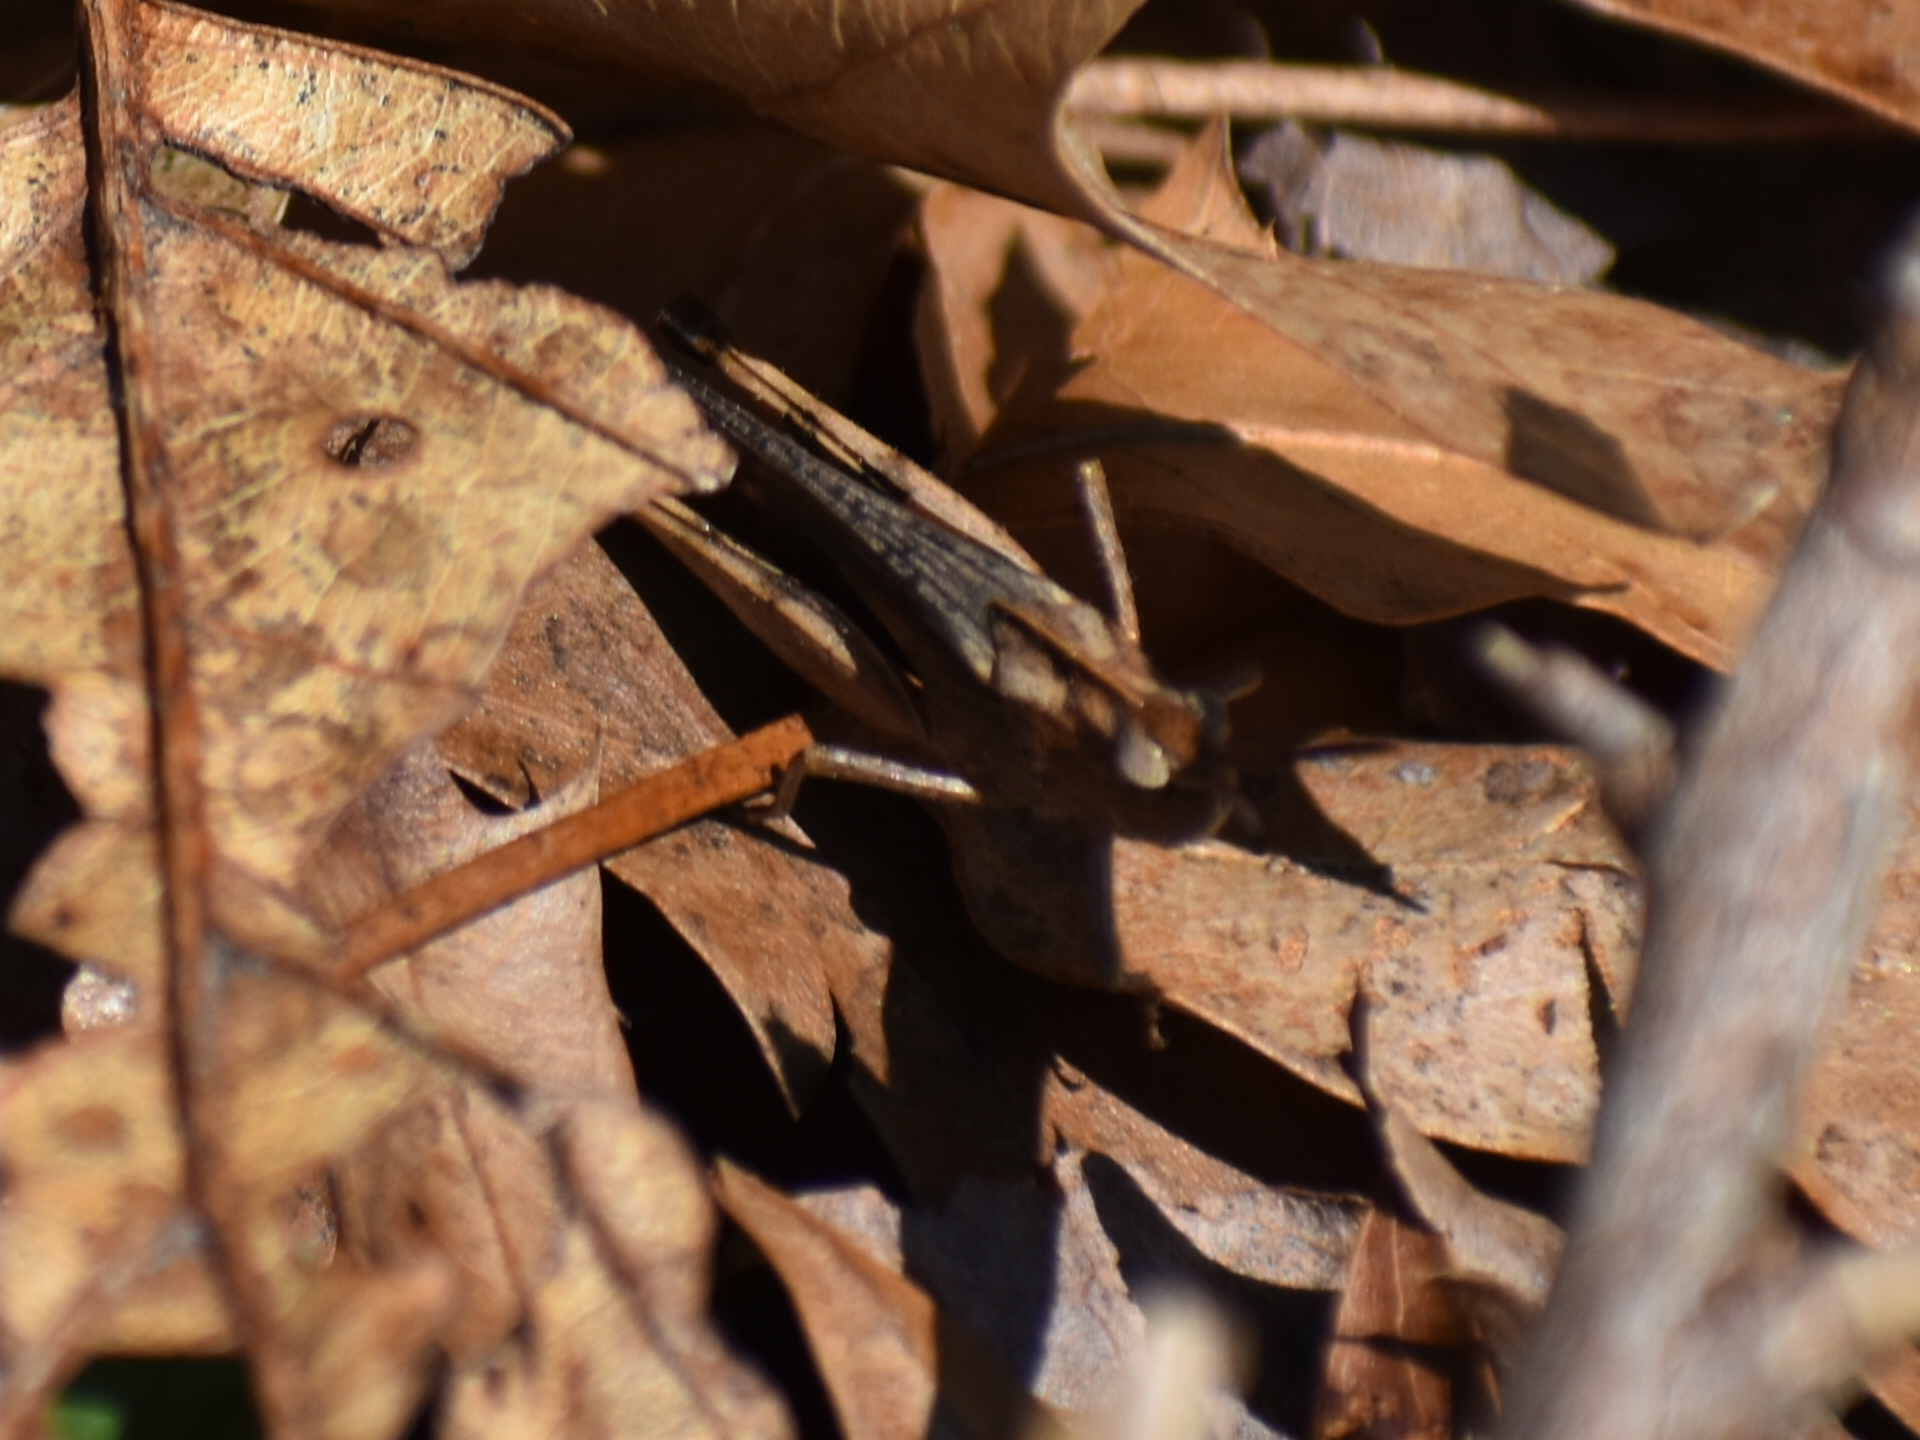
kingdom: Animalia
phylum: Arthropoda
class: Insecta
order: Orthoptera
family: Acrididae
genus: Chortophaga
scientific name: Chortophaga viridifasciata
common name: Green-striped grasshopper
